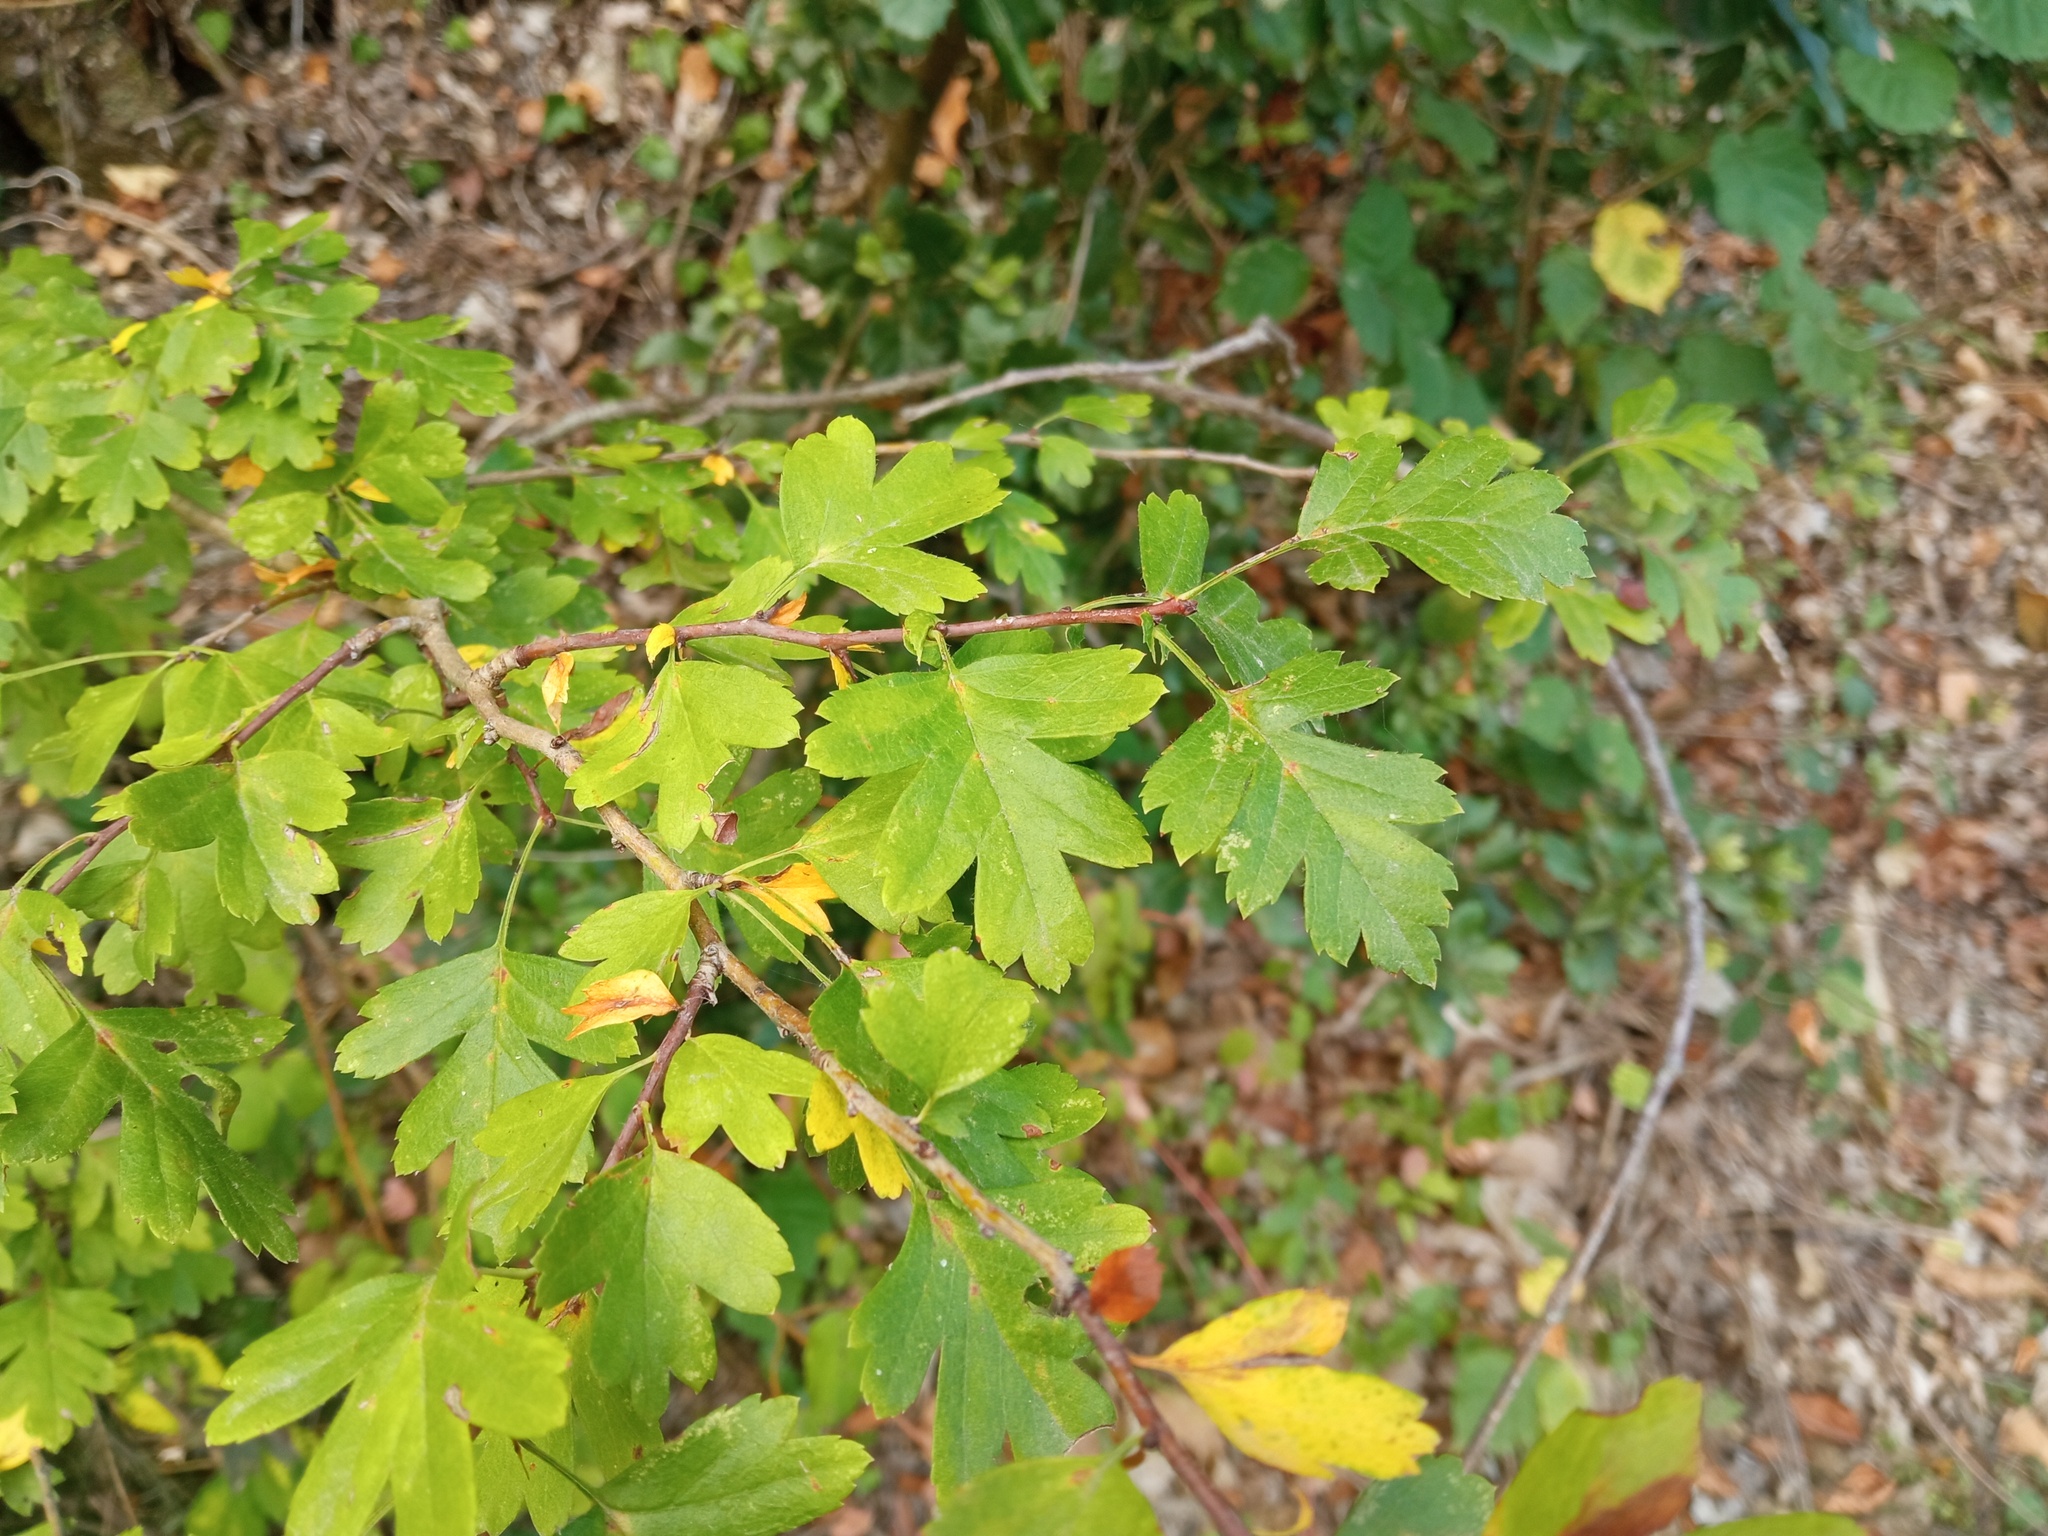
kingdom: Plantae
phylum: Tracheophyta
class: Magnoliopsida
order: Rosales
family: Rosaceae
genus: Crataegus
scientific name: Crataegus monogyna
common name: Hawthorn
